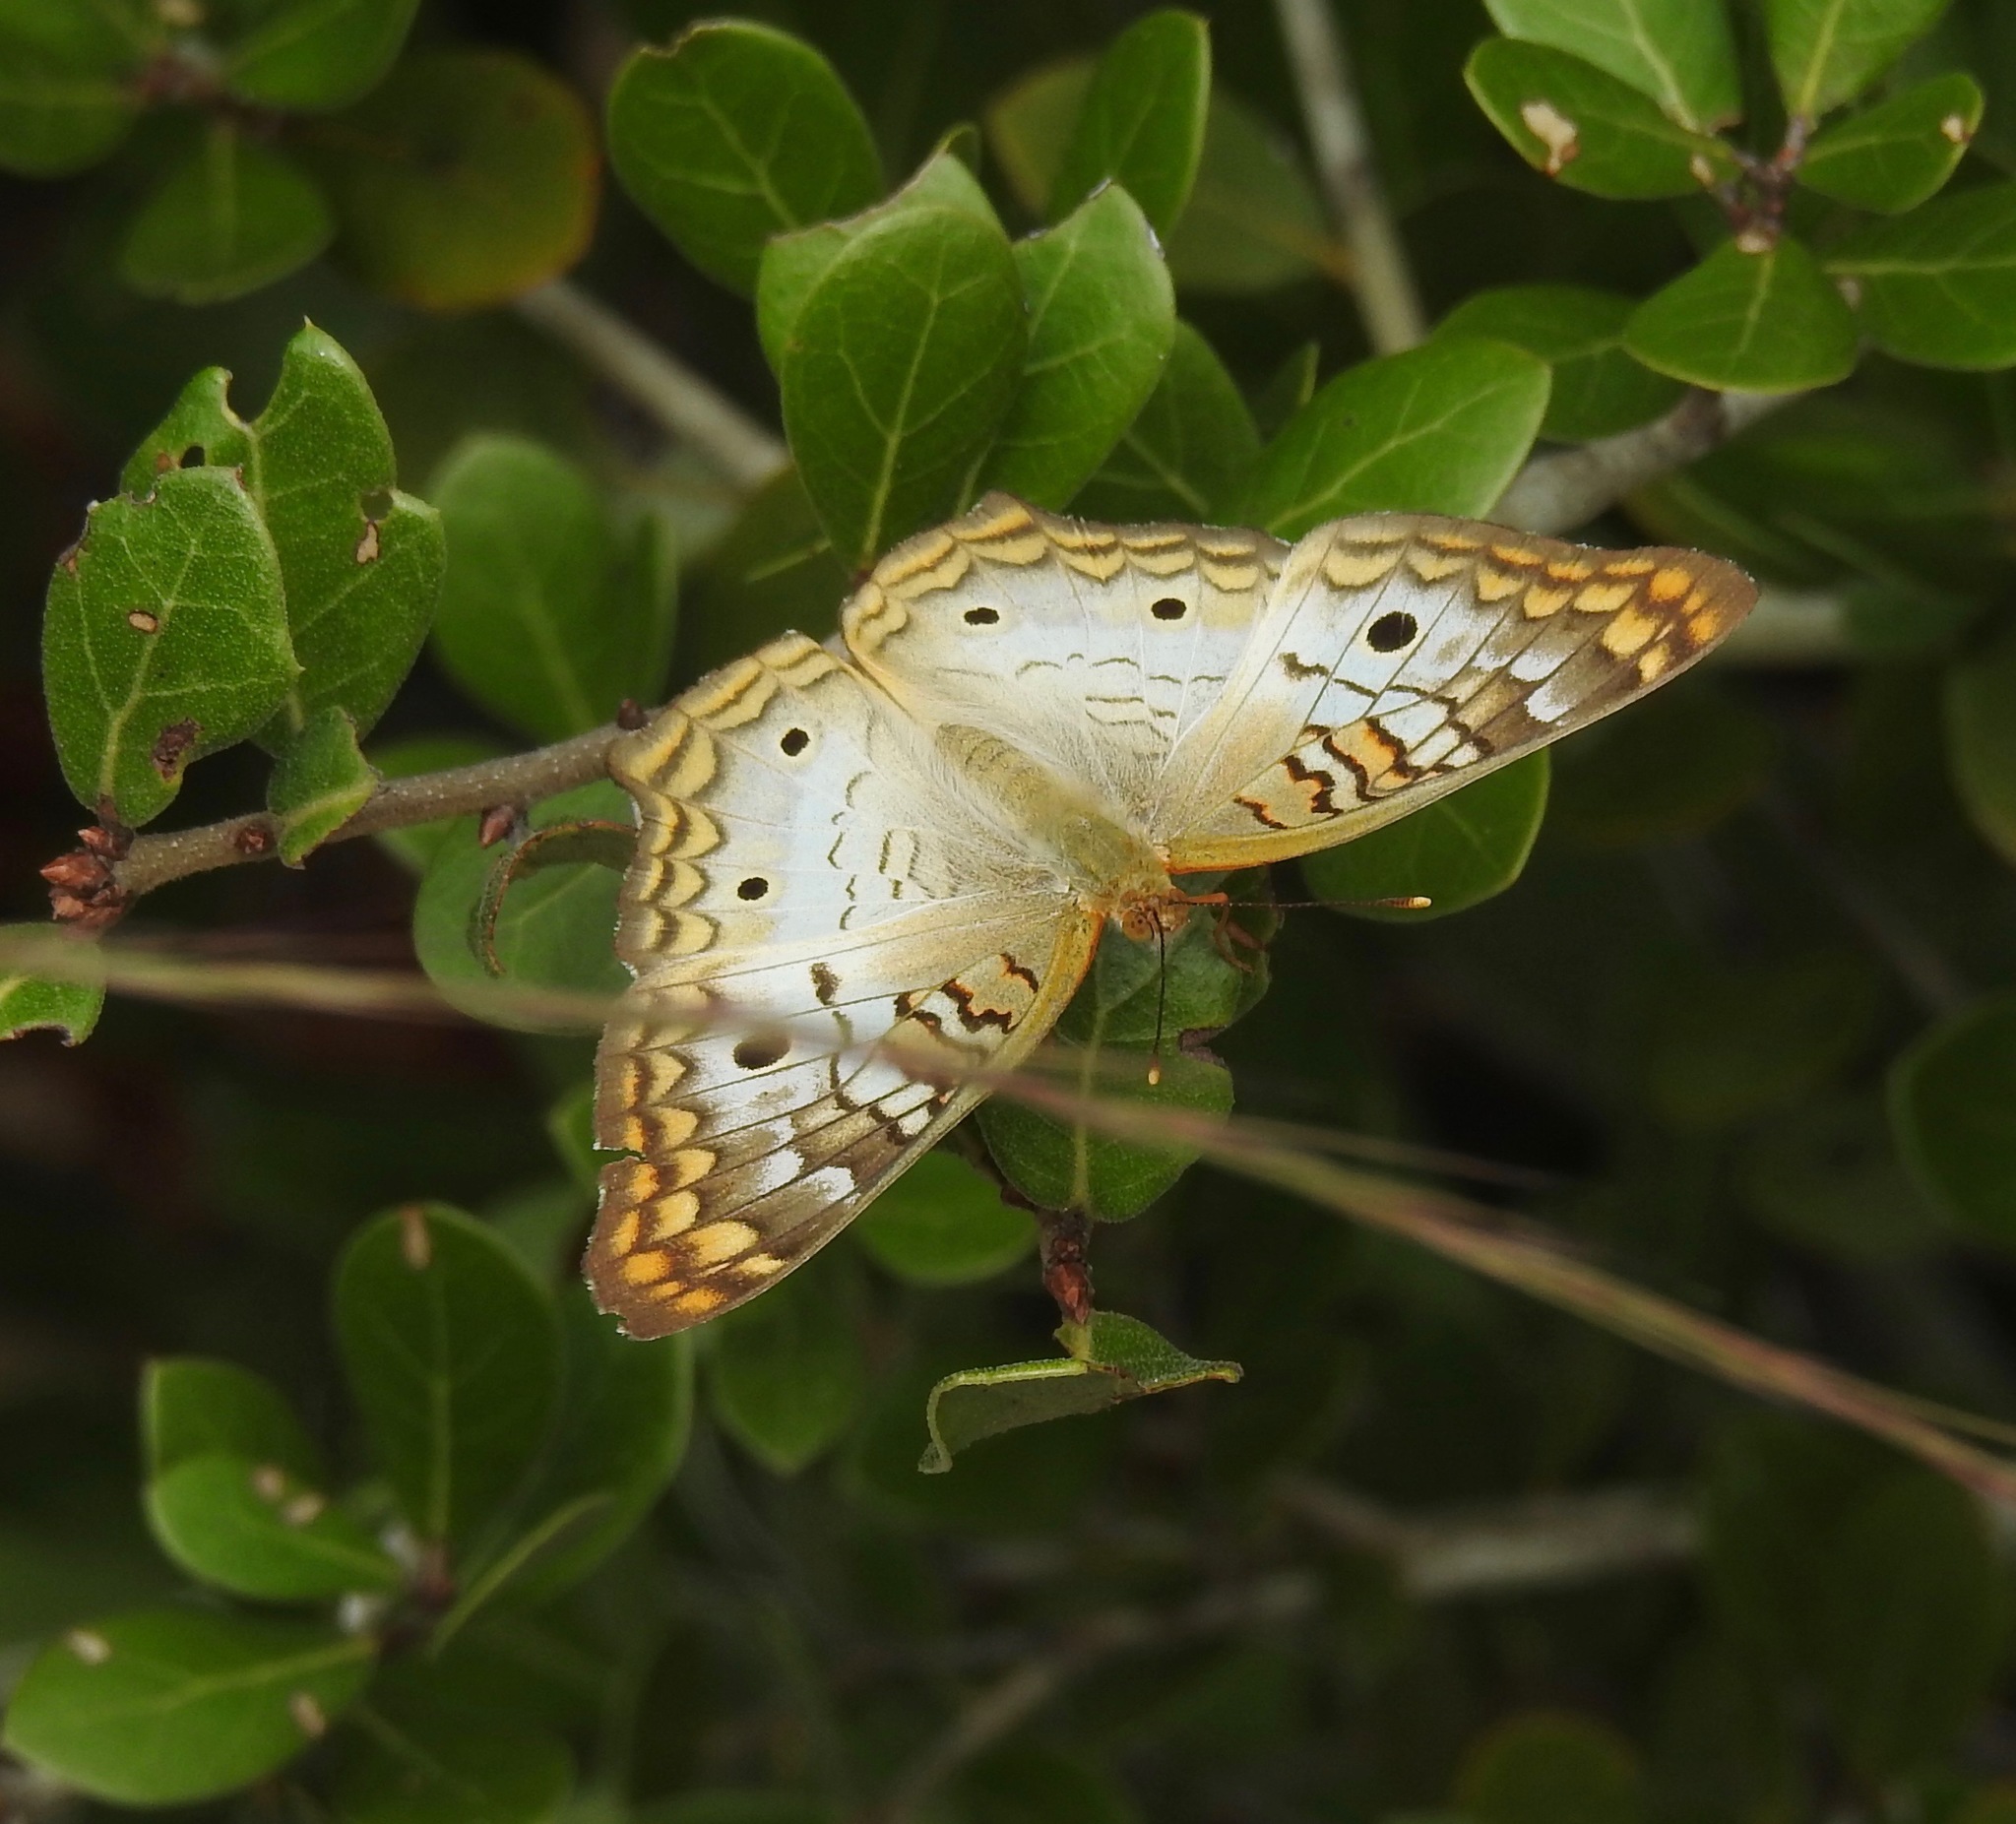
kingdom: Animalia
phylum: Arthropoda
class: Insecta
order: Lepidoptera
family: Nymphalidae
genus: Anartia
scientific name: Anartia jatrophae
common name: White peacock
